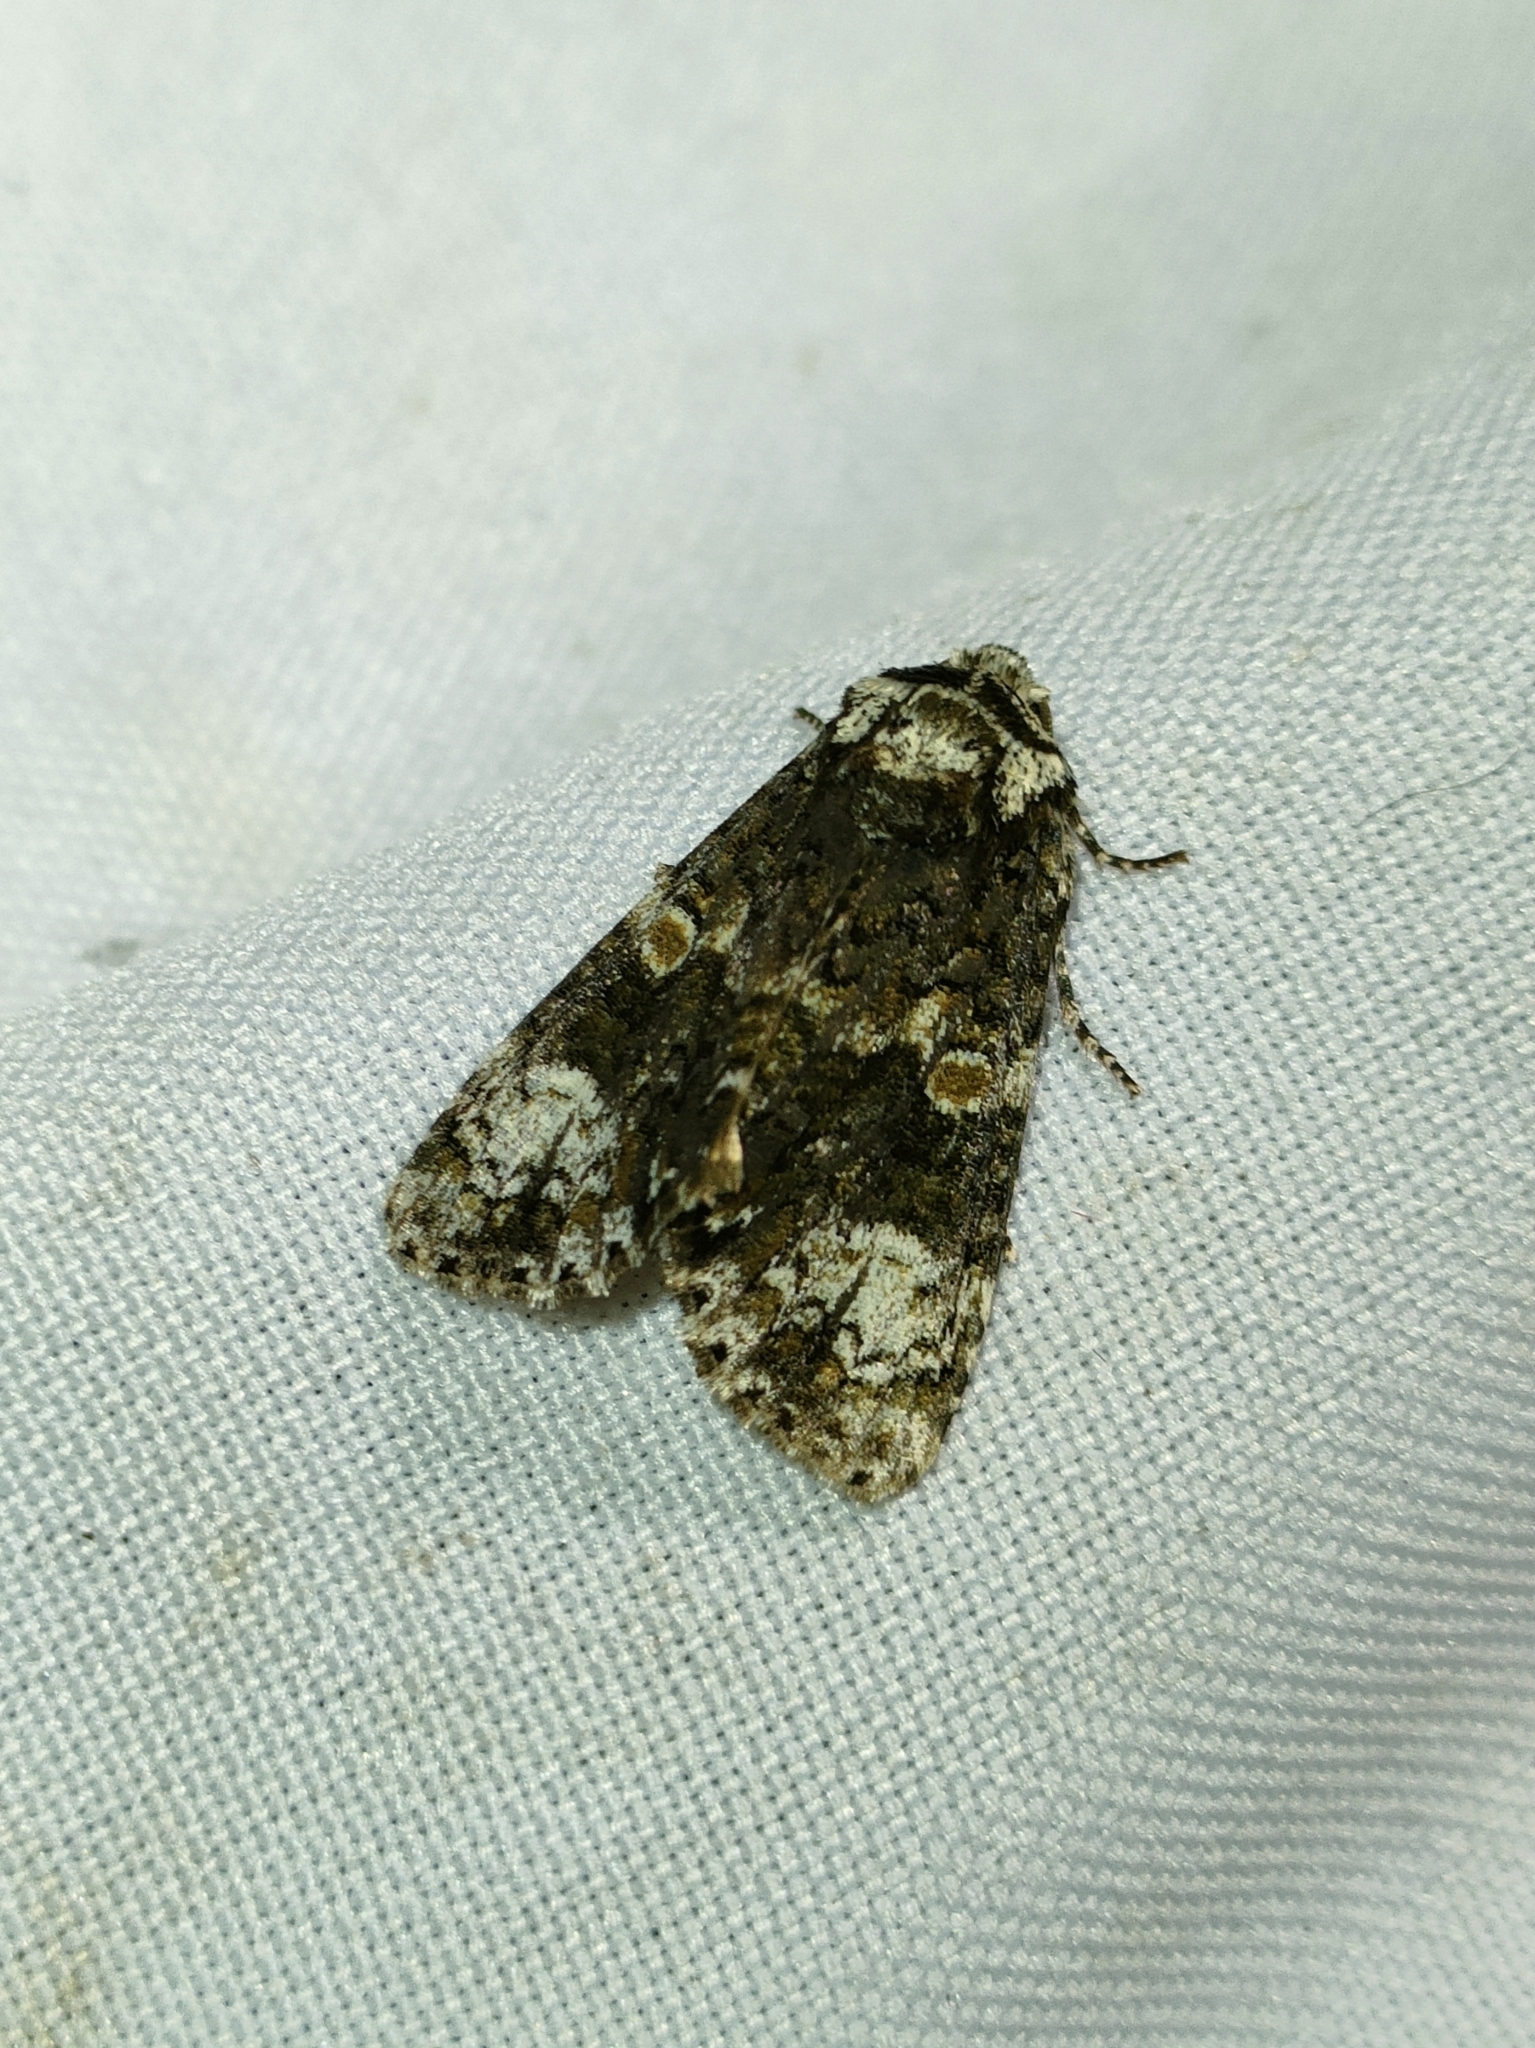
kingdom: Animalia
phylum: Arthropoda
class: Insecta
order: Lepidoptera
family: Noctuidae
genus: Craniophora
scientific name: Craniophora ligustri
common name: Coronet
